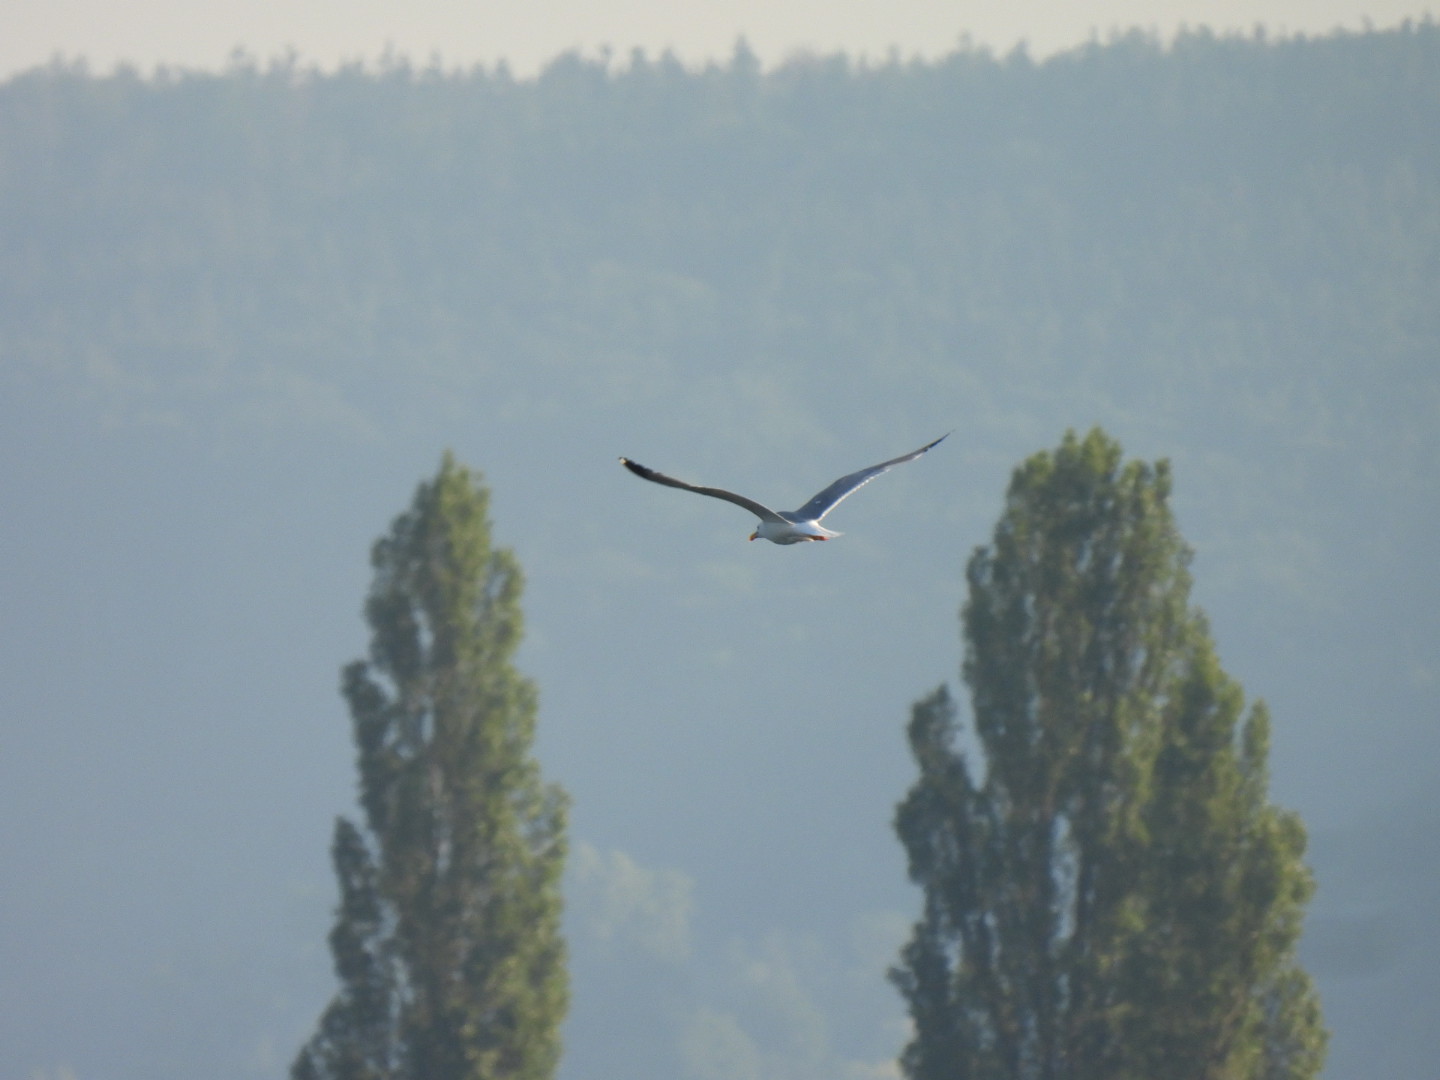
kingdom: Animalia
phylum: Chordata
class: Aves
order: Charadriiformes
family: Laridae
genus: Larus
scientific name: Larus michahellis
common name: Yellow-legged gull
